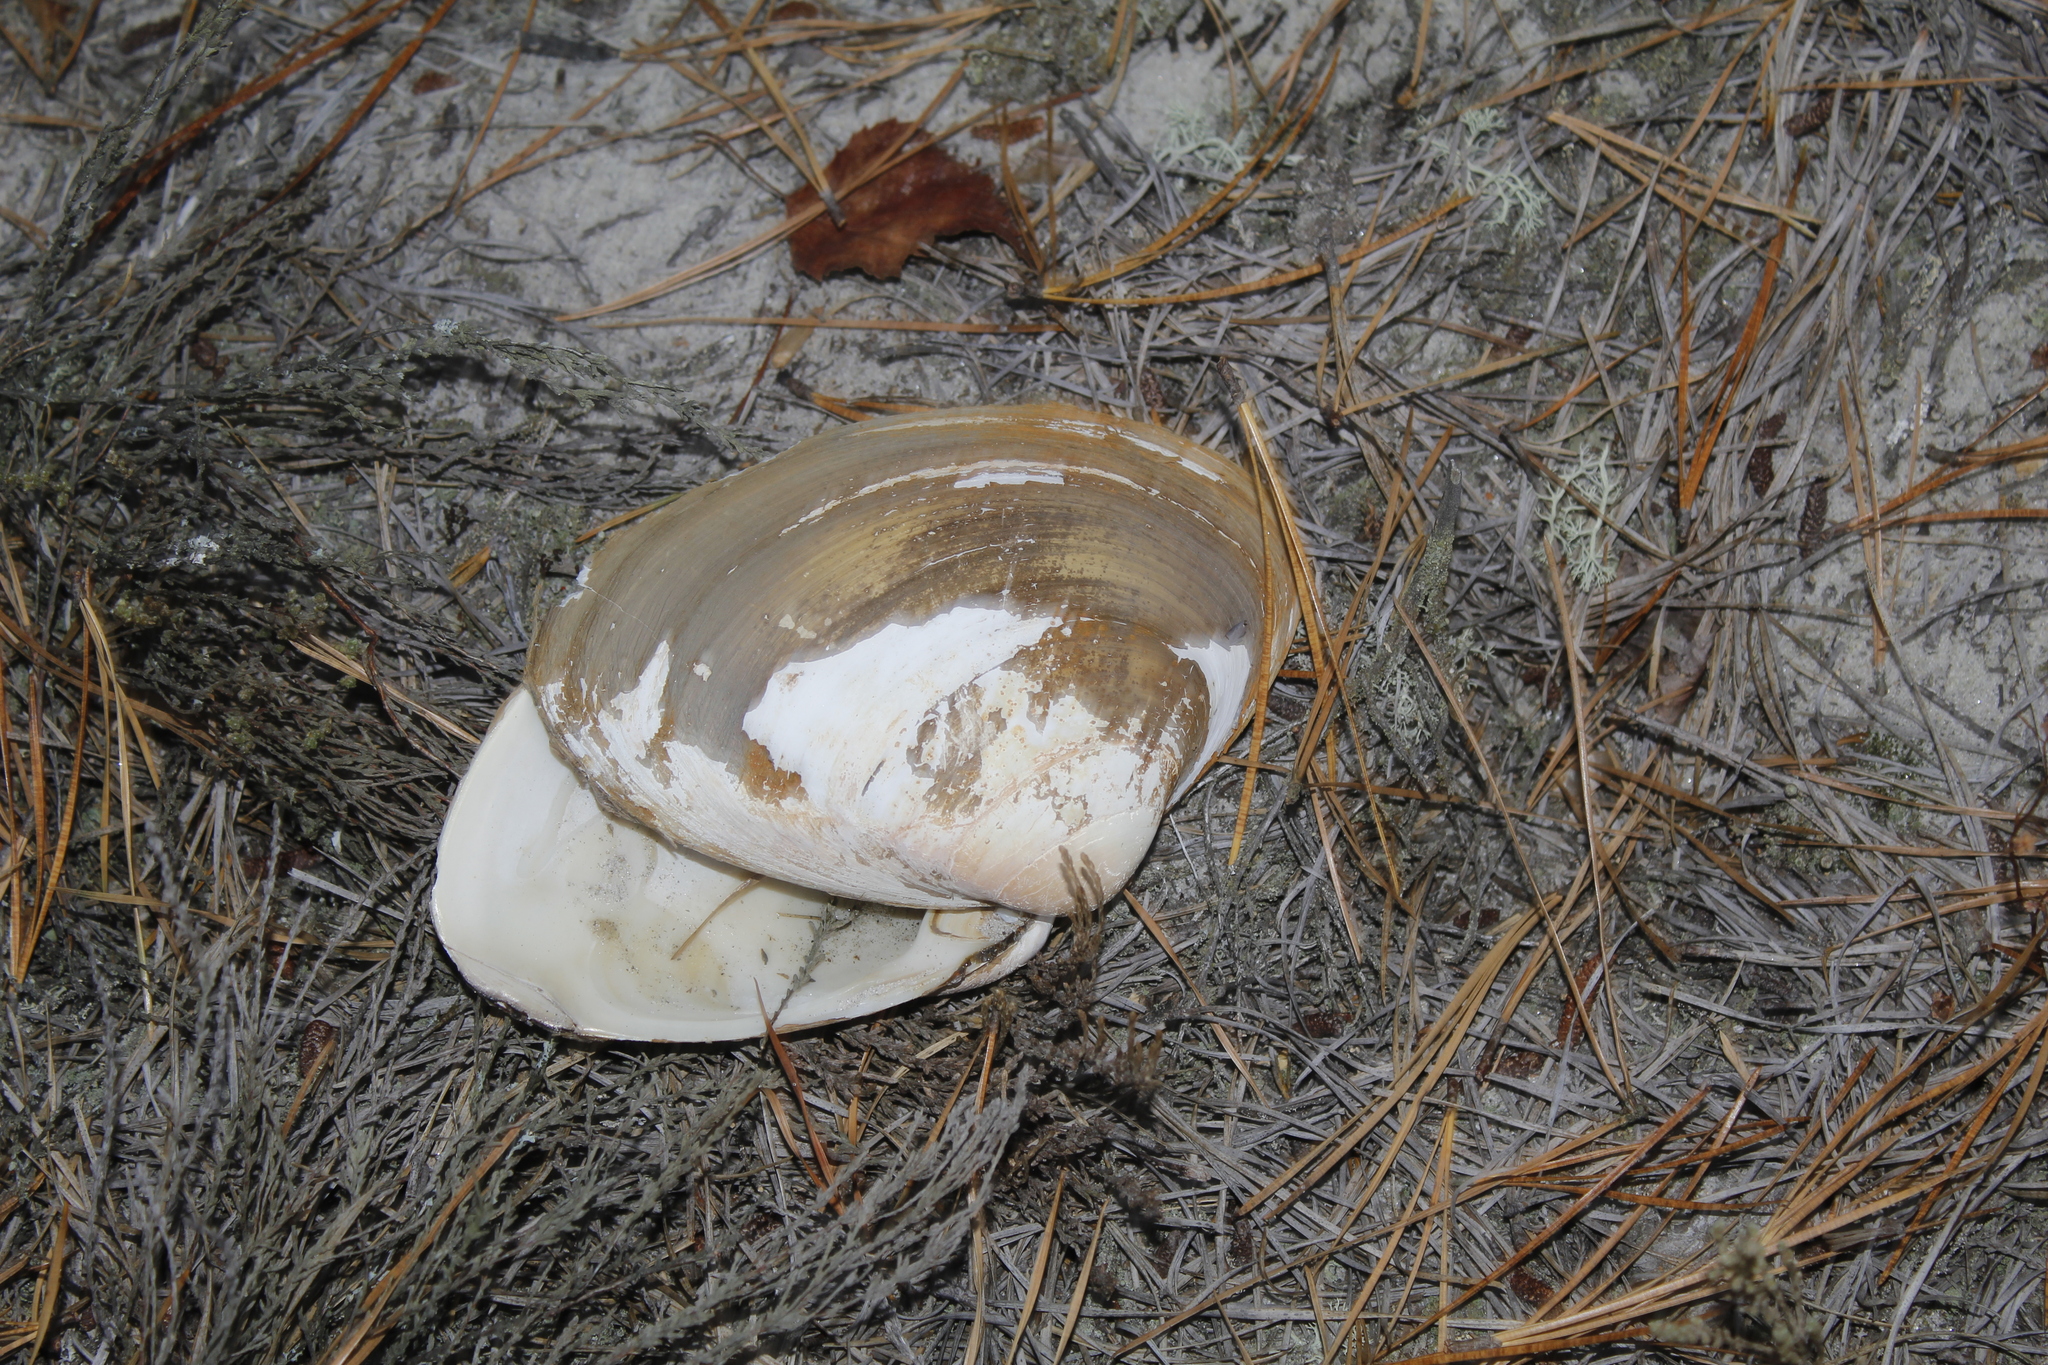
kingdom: Animalia
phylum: Mollusca
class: Bivalvia
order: Venerida
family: Mactridae
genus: Spisula
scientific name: Spisula solidissima
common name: Atlantic surf clam
